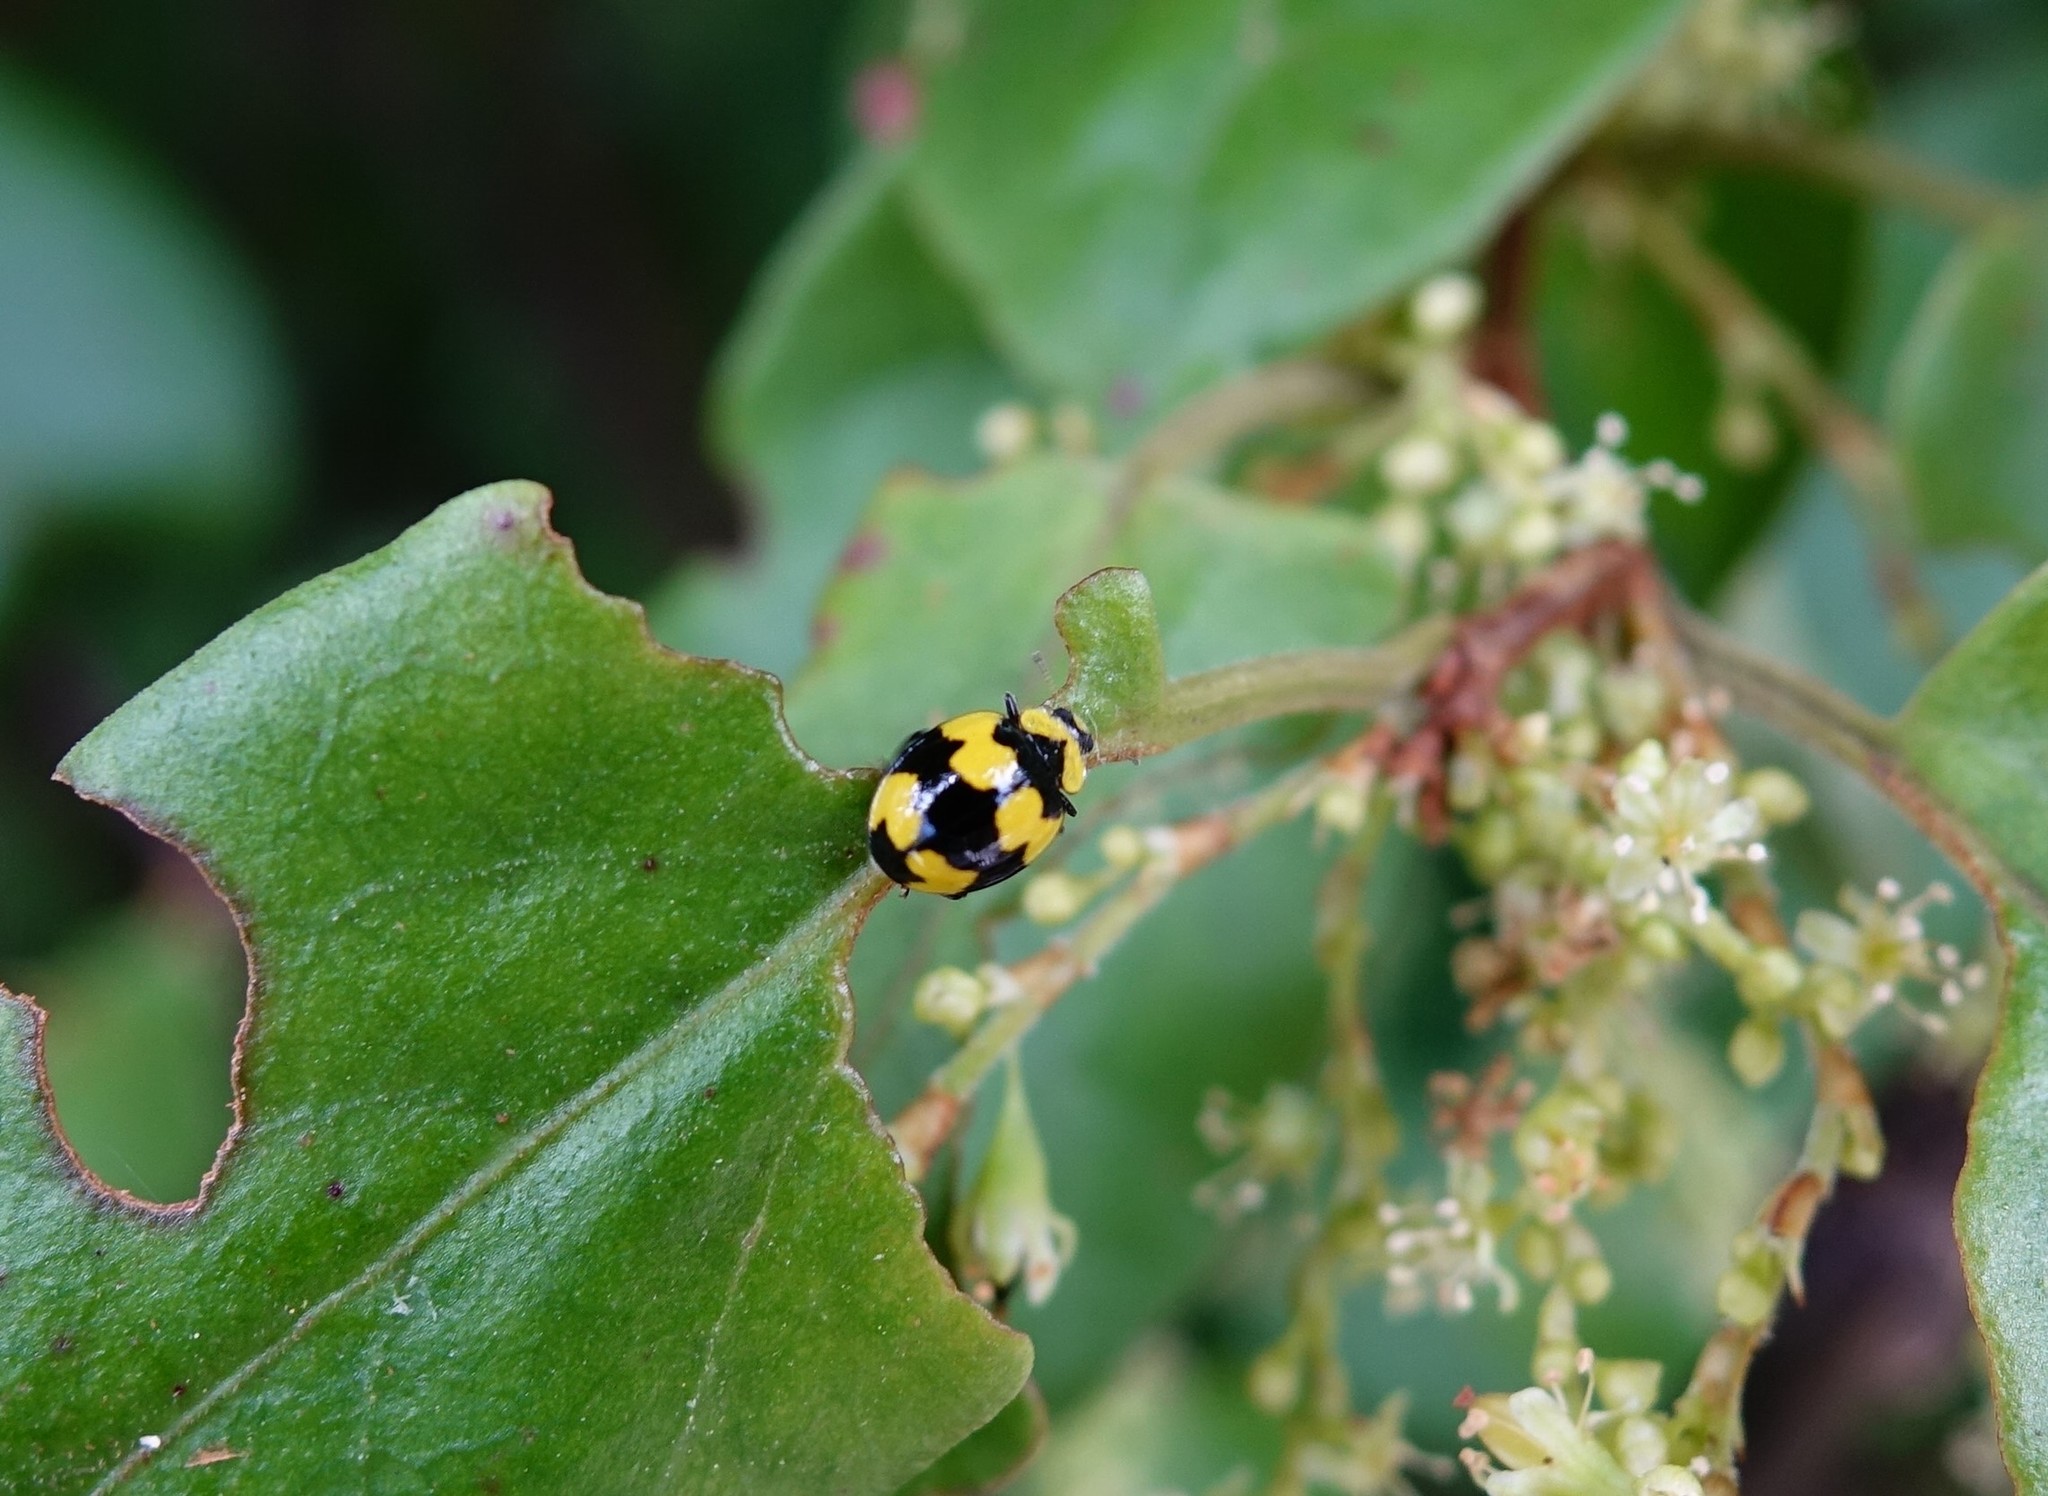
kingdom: Animalia
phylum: Arthropoda
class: Insecta
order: Coleoptera
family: Coccinellidae
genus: Illeis
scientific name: Illeis galbula
